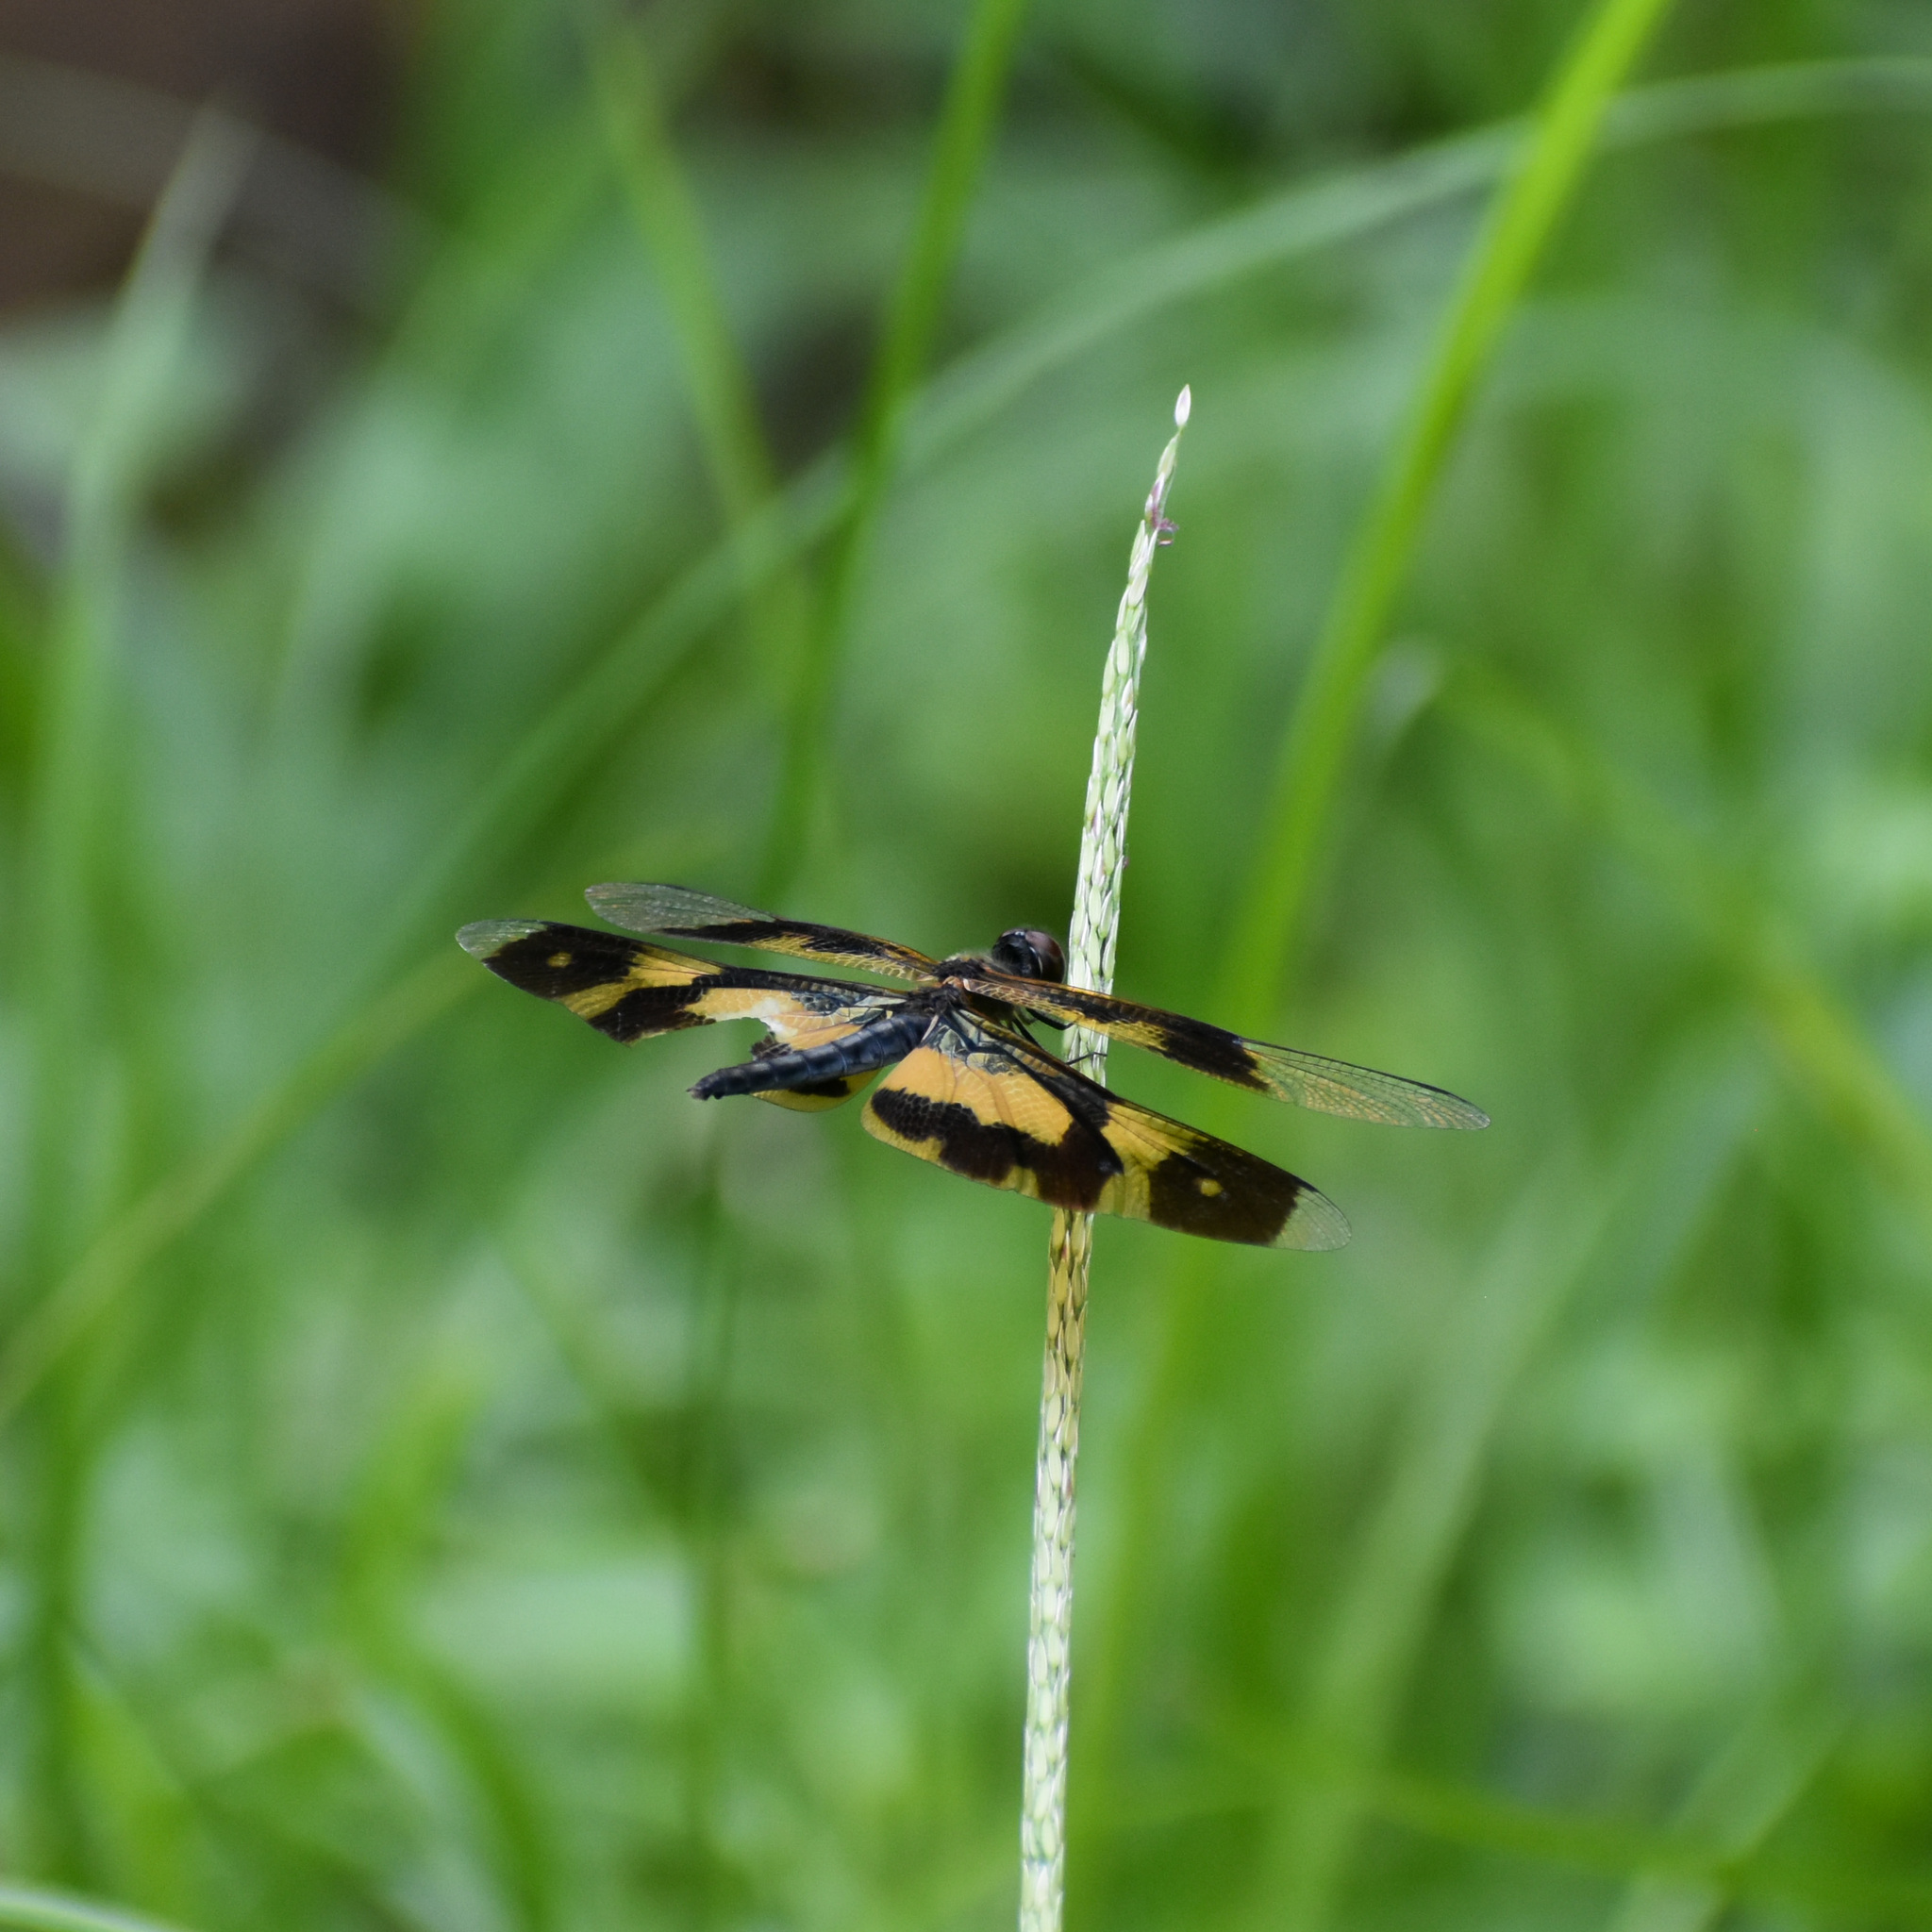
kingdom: Animalia
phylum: Arthropoda
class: Insecta
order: Odonata
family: Libellulidae
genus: Rhyothemis
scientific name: Rhyothemis variegata
